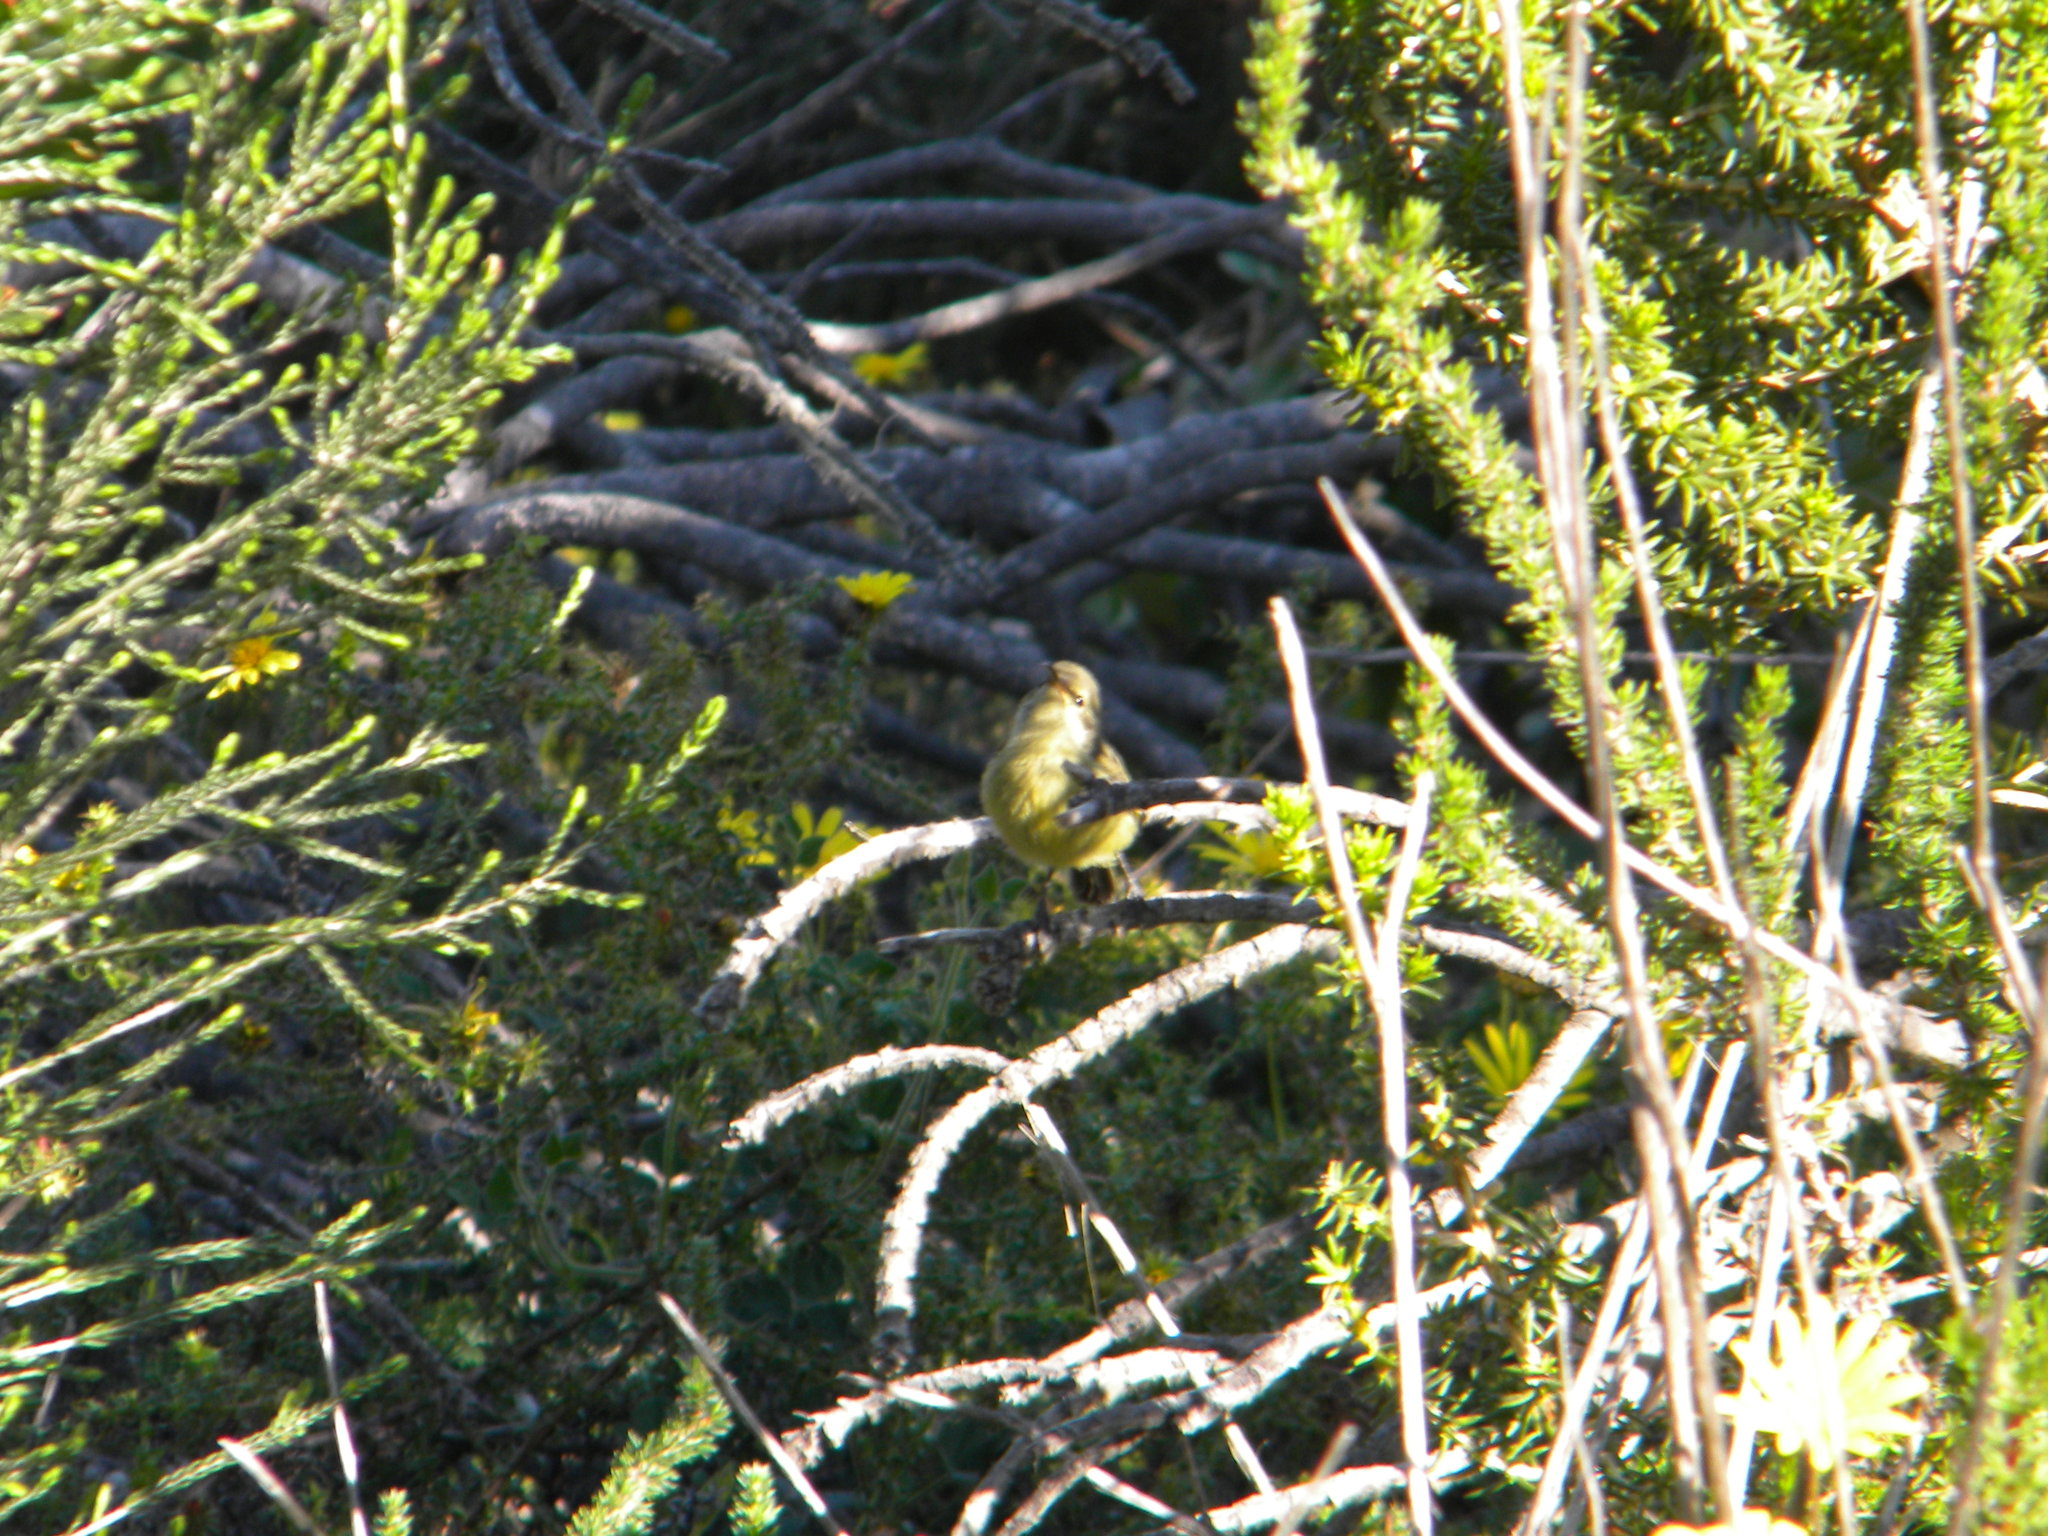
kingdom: Animalia
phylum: Chordata
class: Aves
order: Passeriformes
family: Nectariniidae
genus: Anthobaphes
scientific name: Anthobaphes violacea
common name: Orange-breasted sunbird
